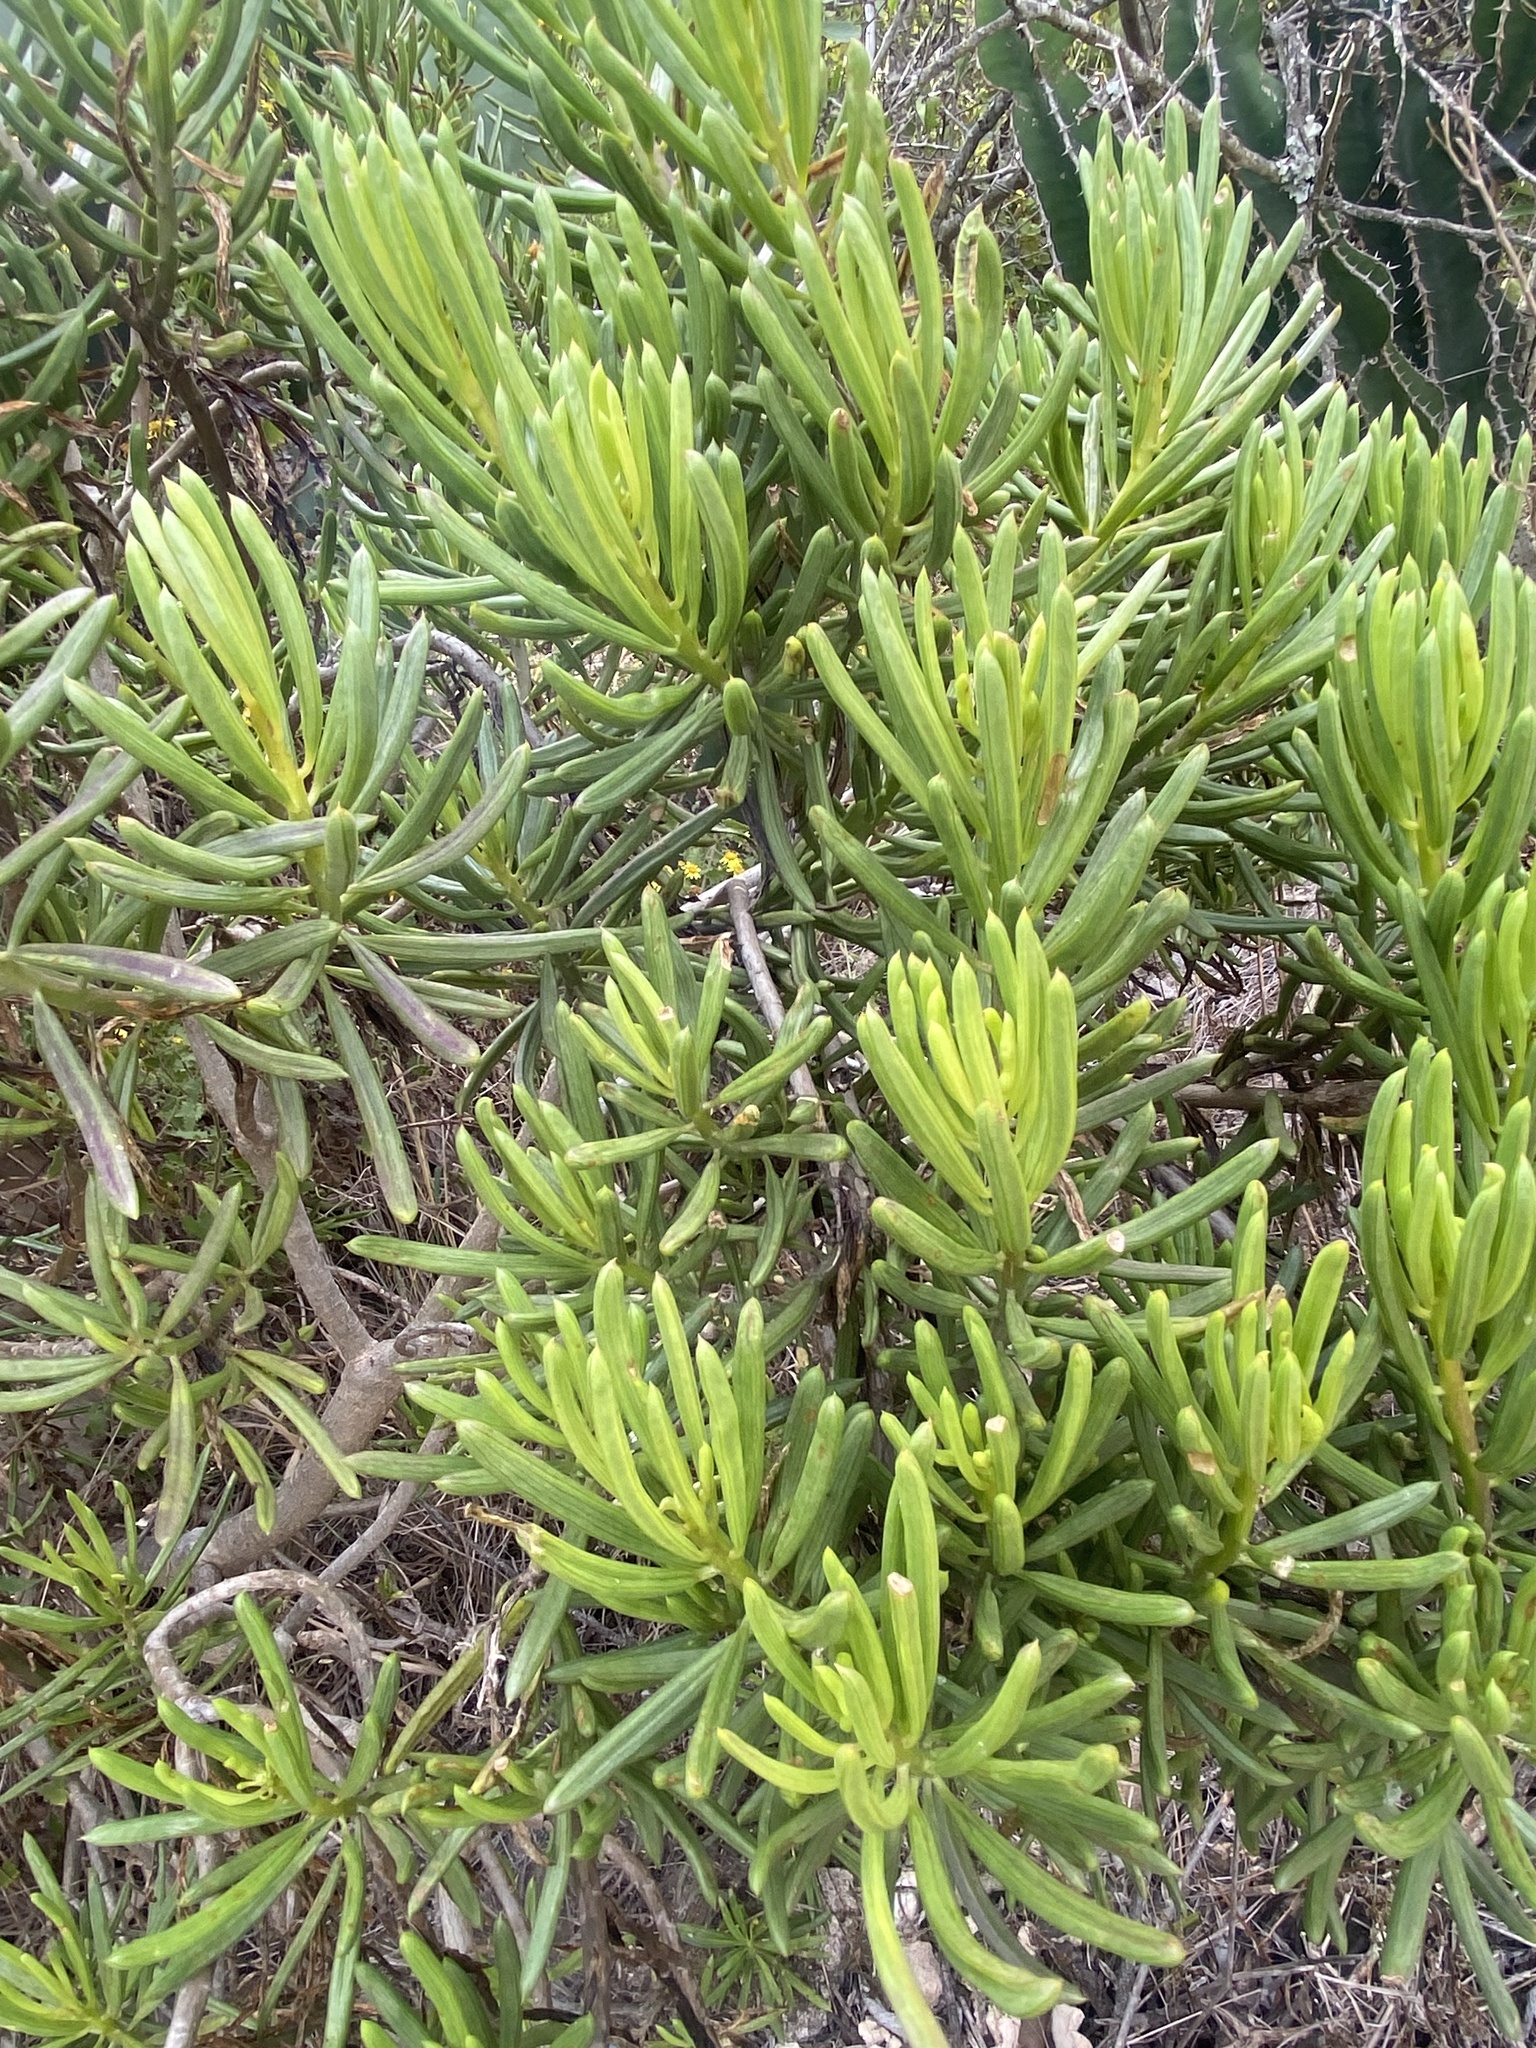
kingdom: Plantae
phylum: Tracheophyta
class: Magnoliopsida
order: Asterales
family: Asteraceae
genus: Kleinia
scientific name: Kleinia barbertonica
